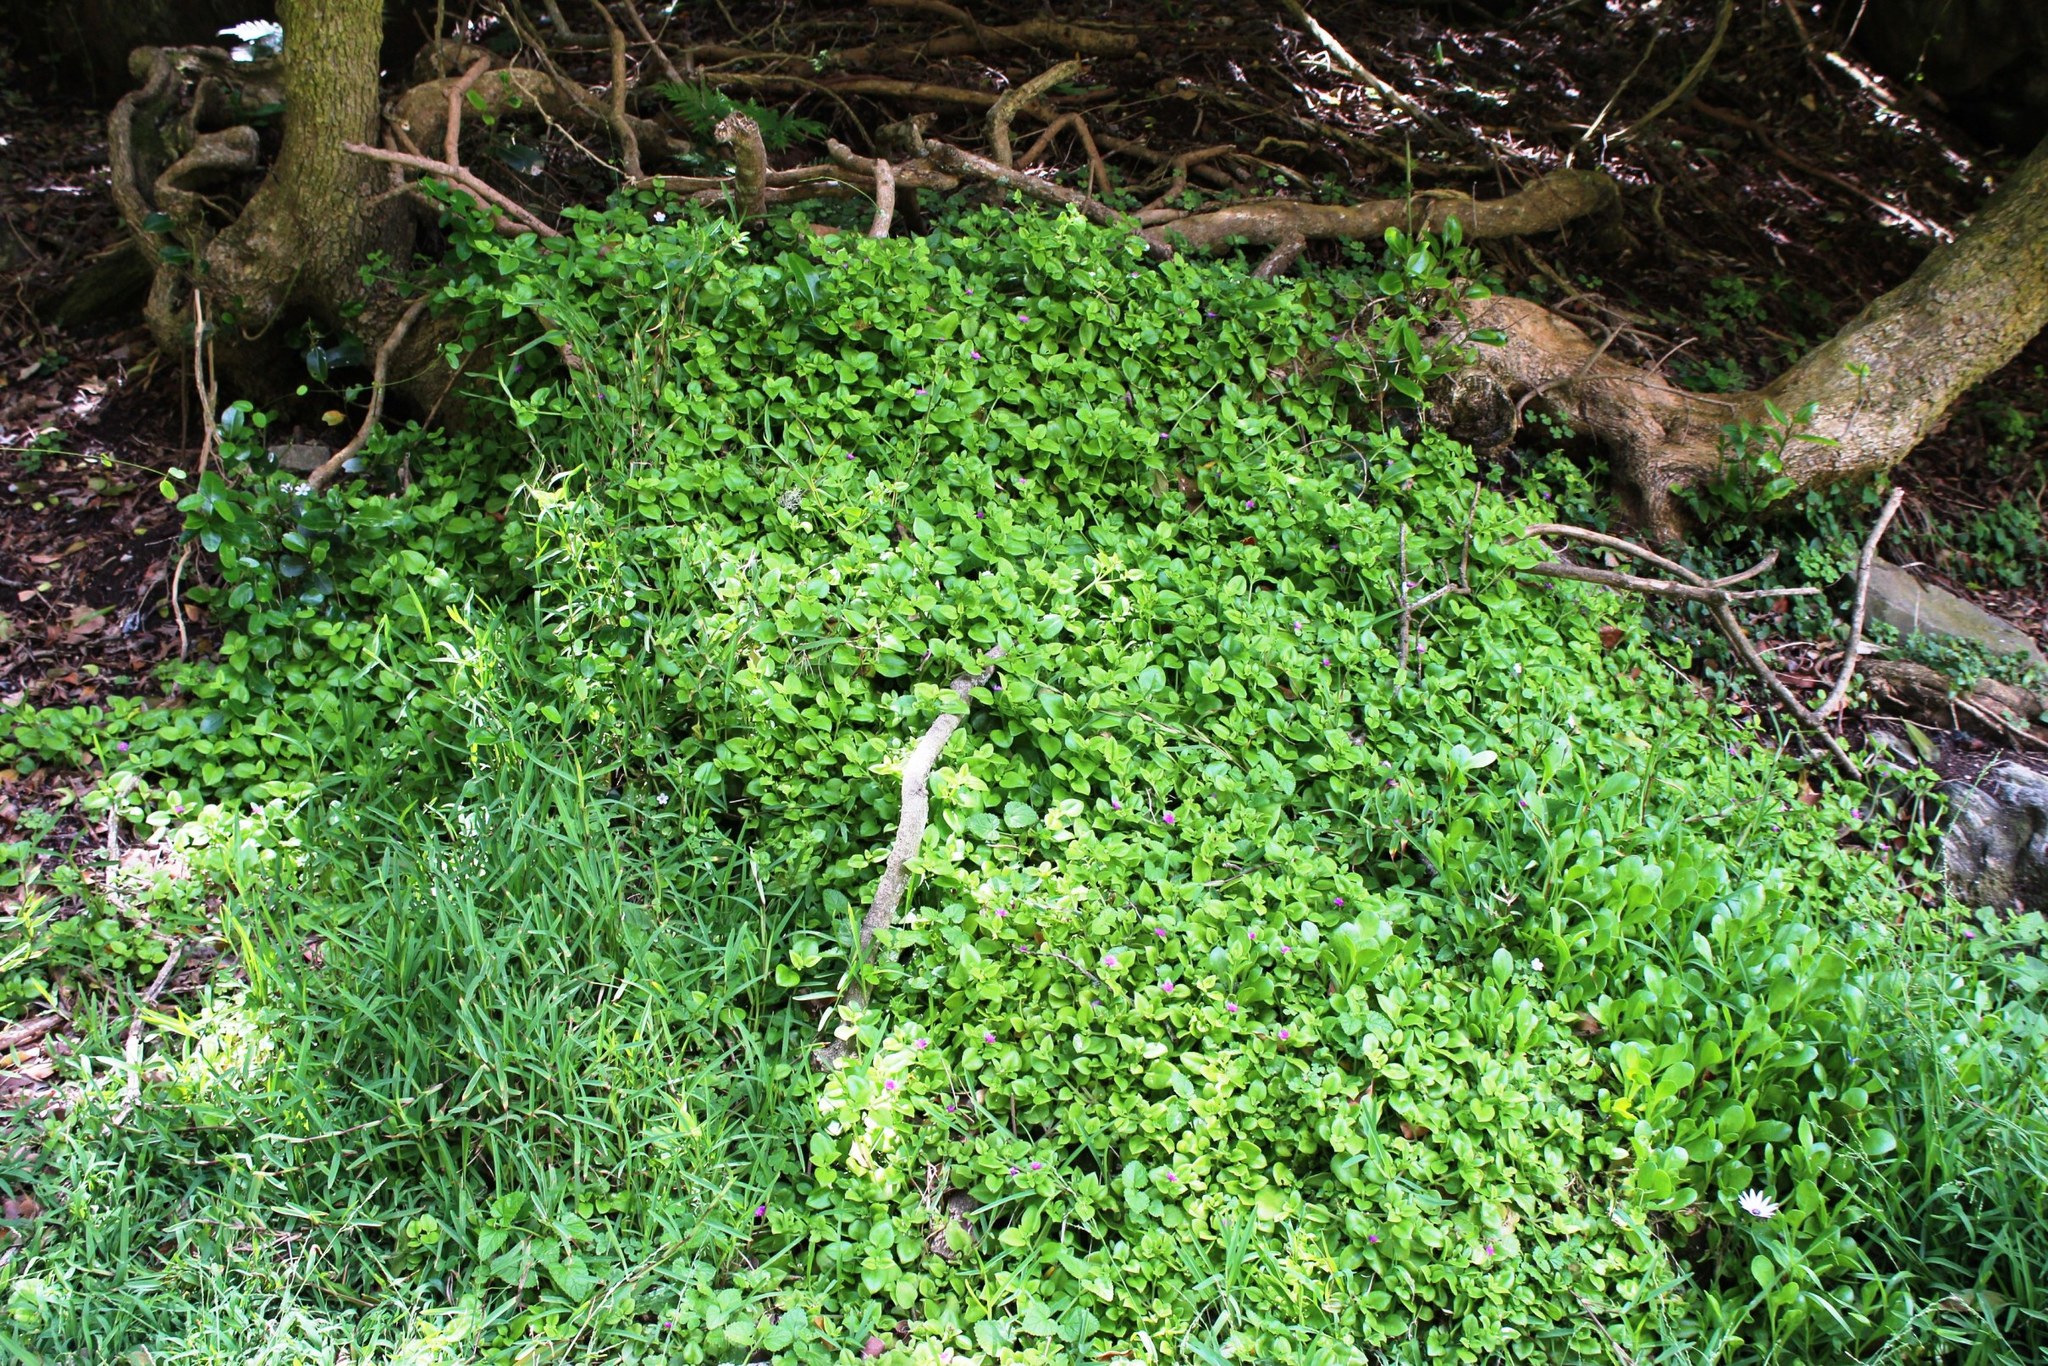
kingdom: Plantae
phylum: Tracheophyta
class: Magnoliopsida
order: Caryophyllales
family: Aizoaceae
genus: Mesembryanthemum
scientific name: Mesembryanthemum cordifolium
